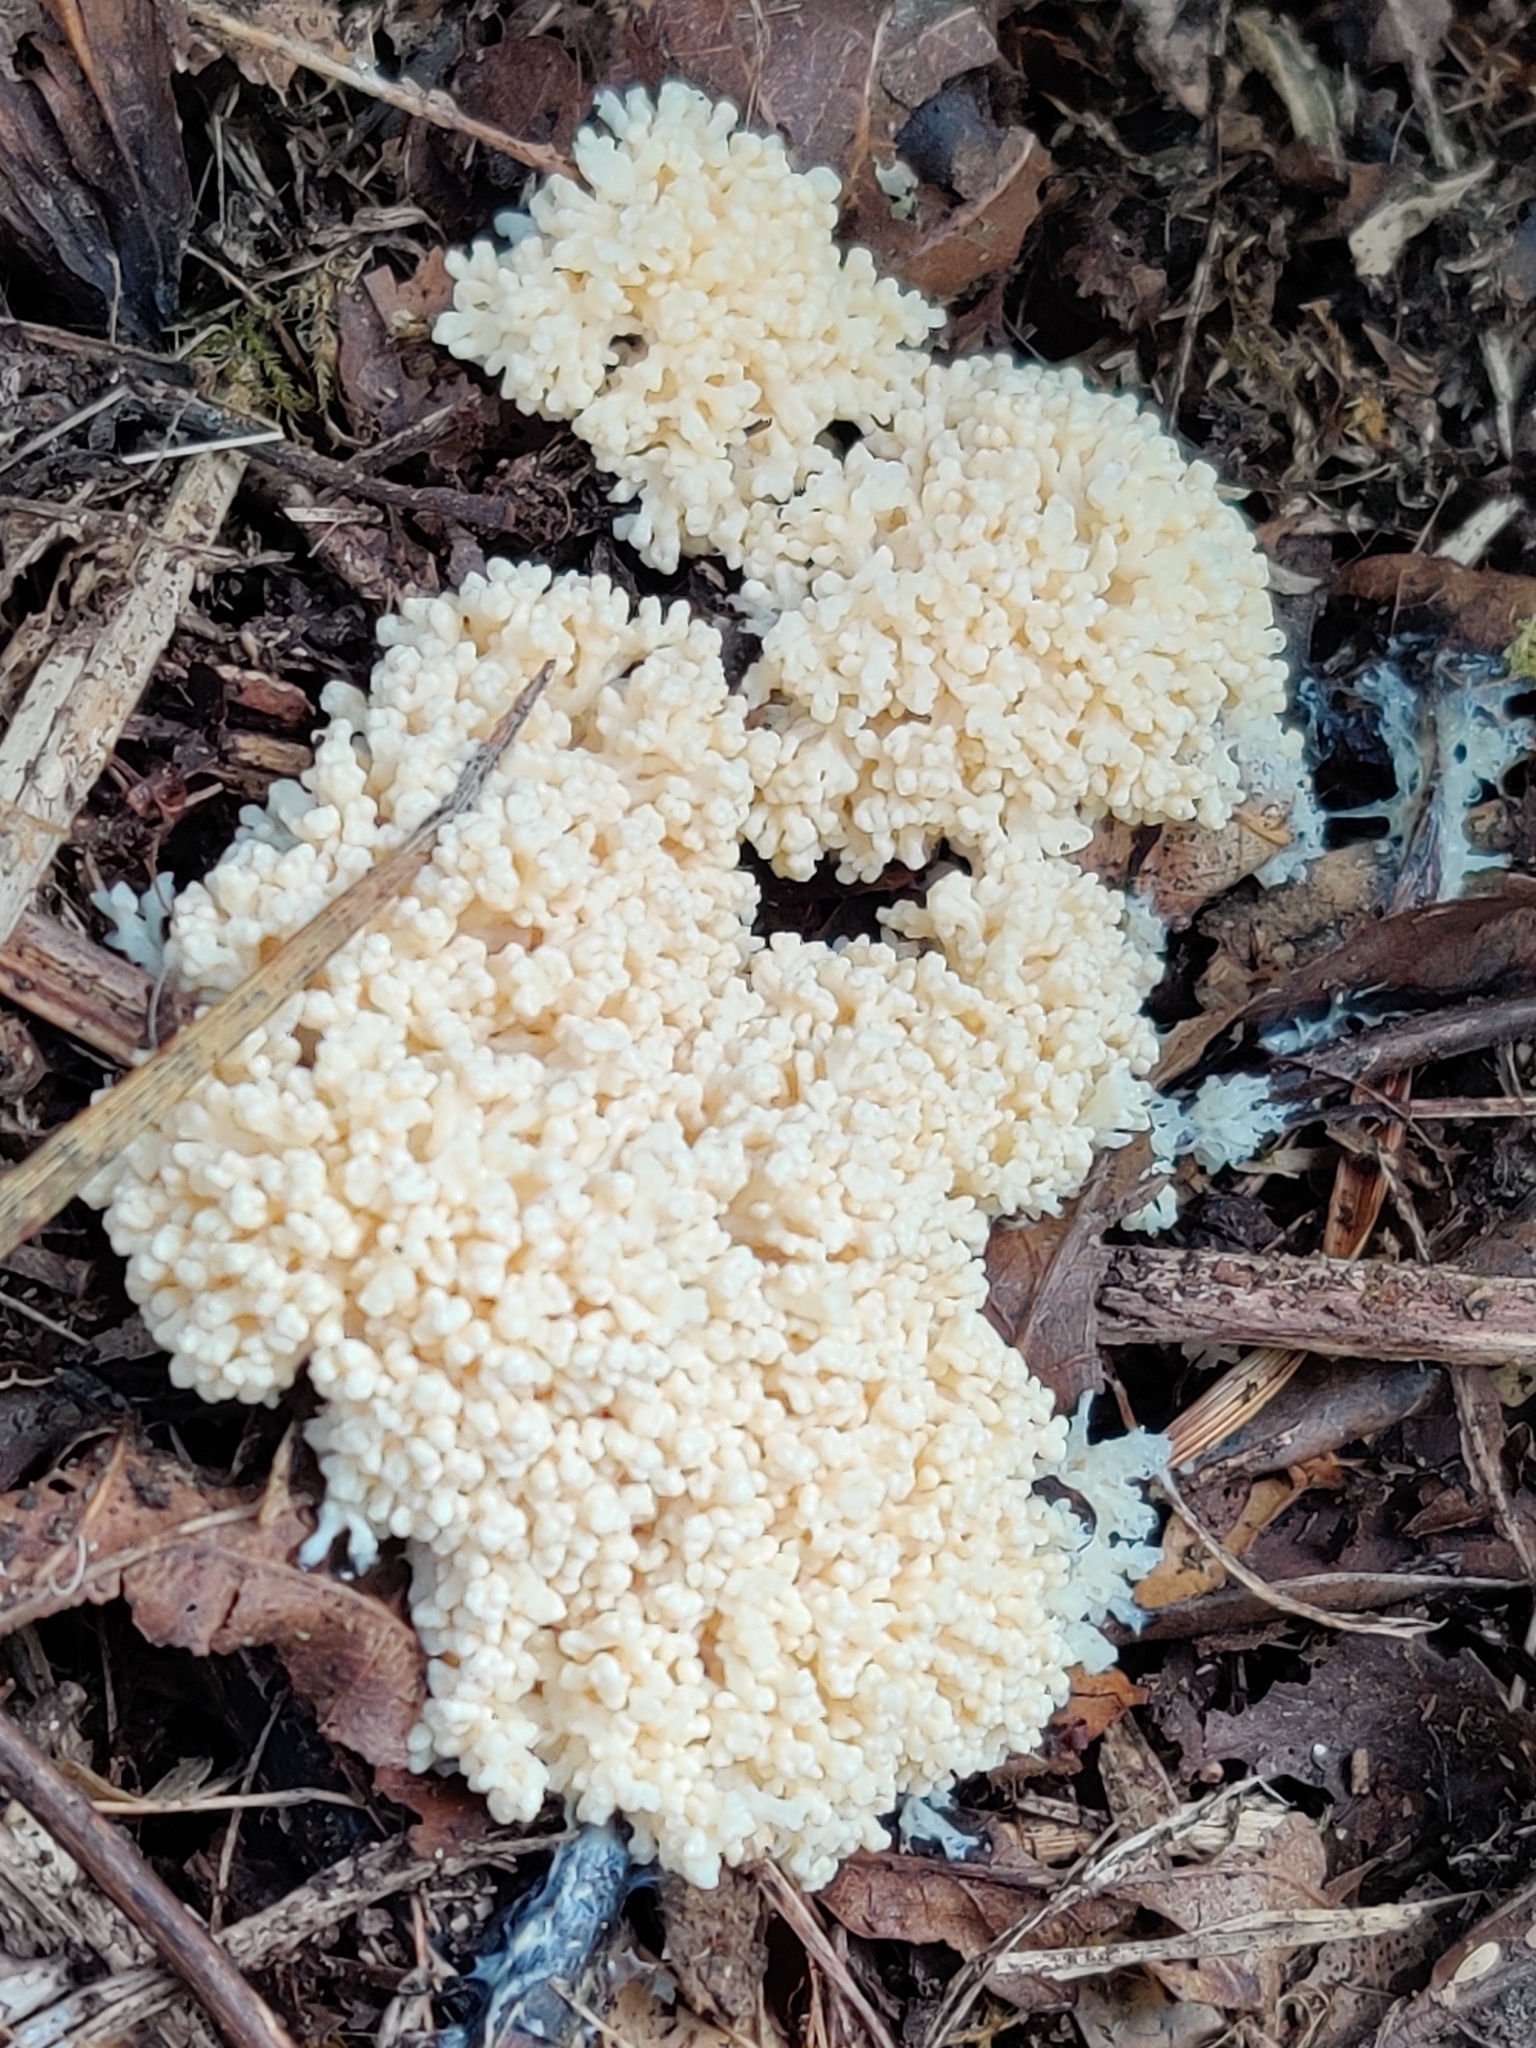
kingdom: Protozoa
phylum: Mycetozoa
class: Myxomycetes
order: Physarales
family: Physaraceae
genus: Didymium
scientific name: Didymium
